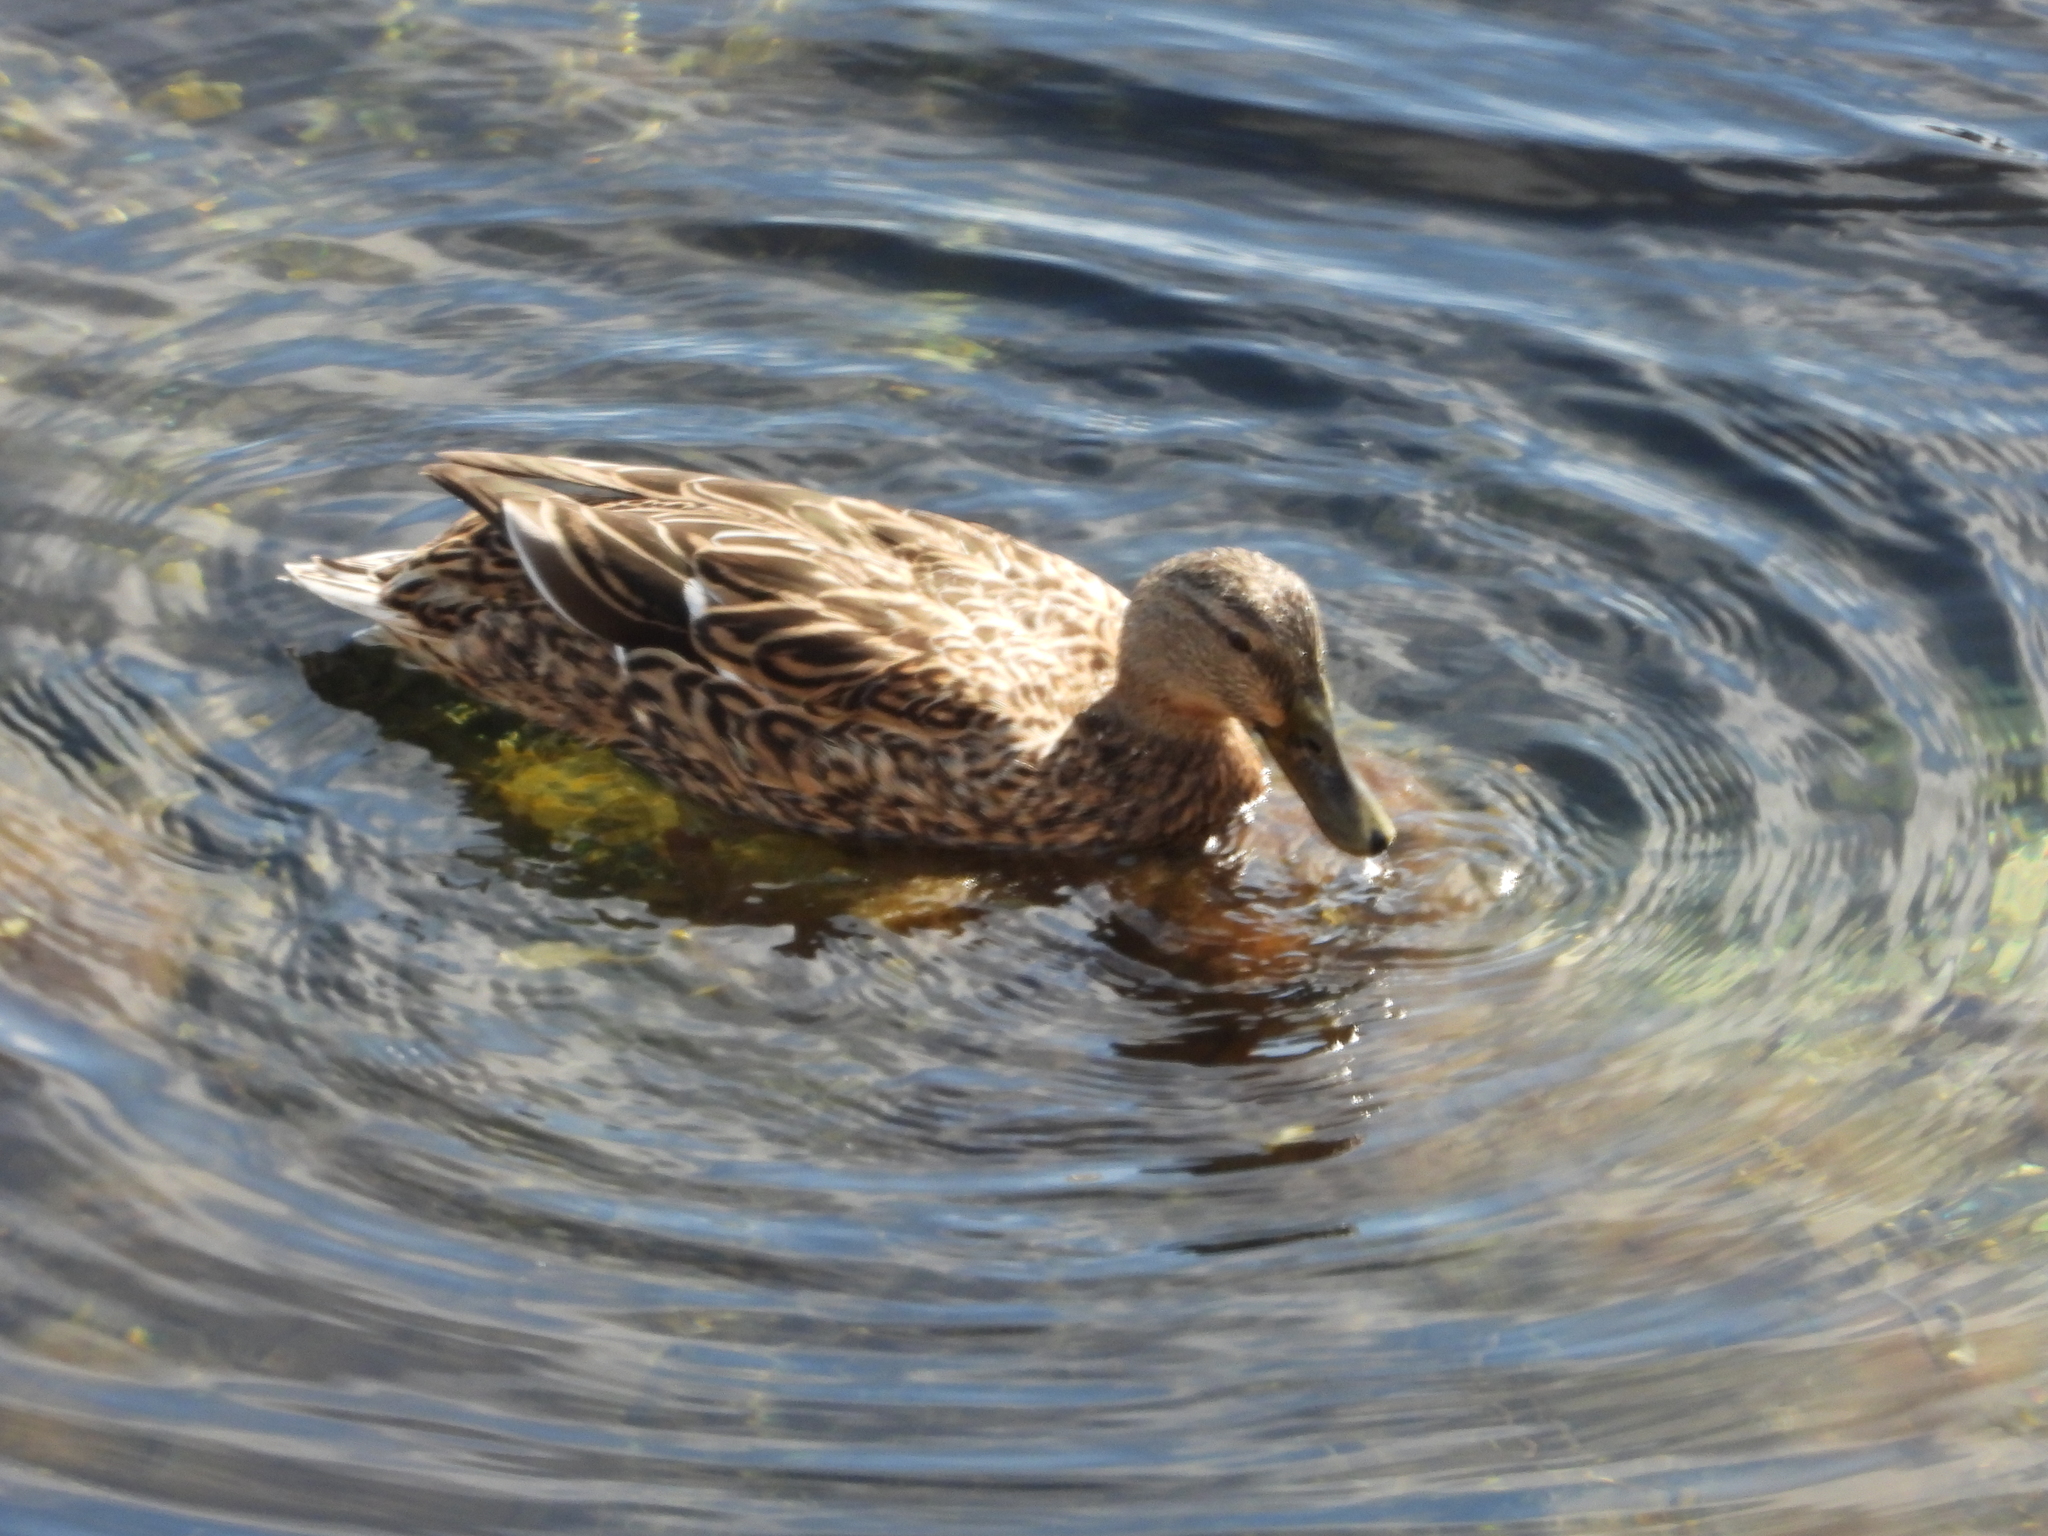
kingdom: Animalia
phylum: Chordata
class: Aves
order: Anseriformes
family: Anatidae
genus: Anas
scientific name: Anas platyrhynchos
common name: Mallard
